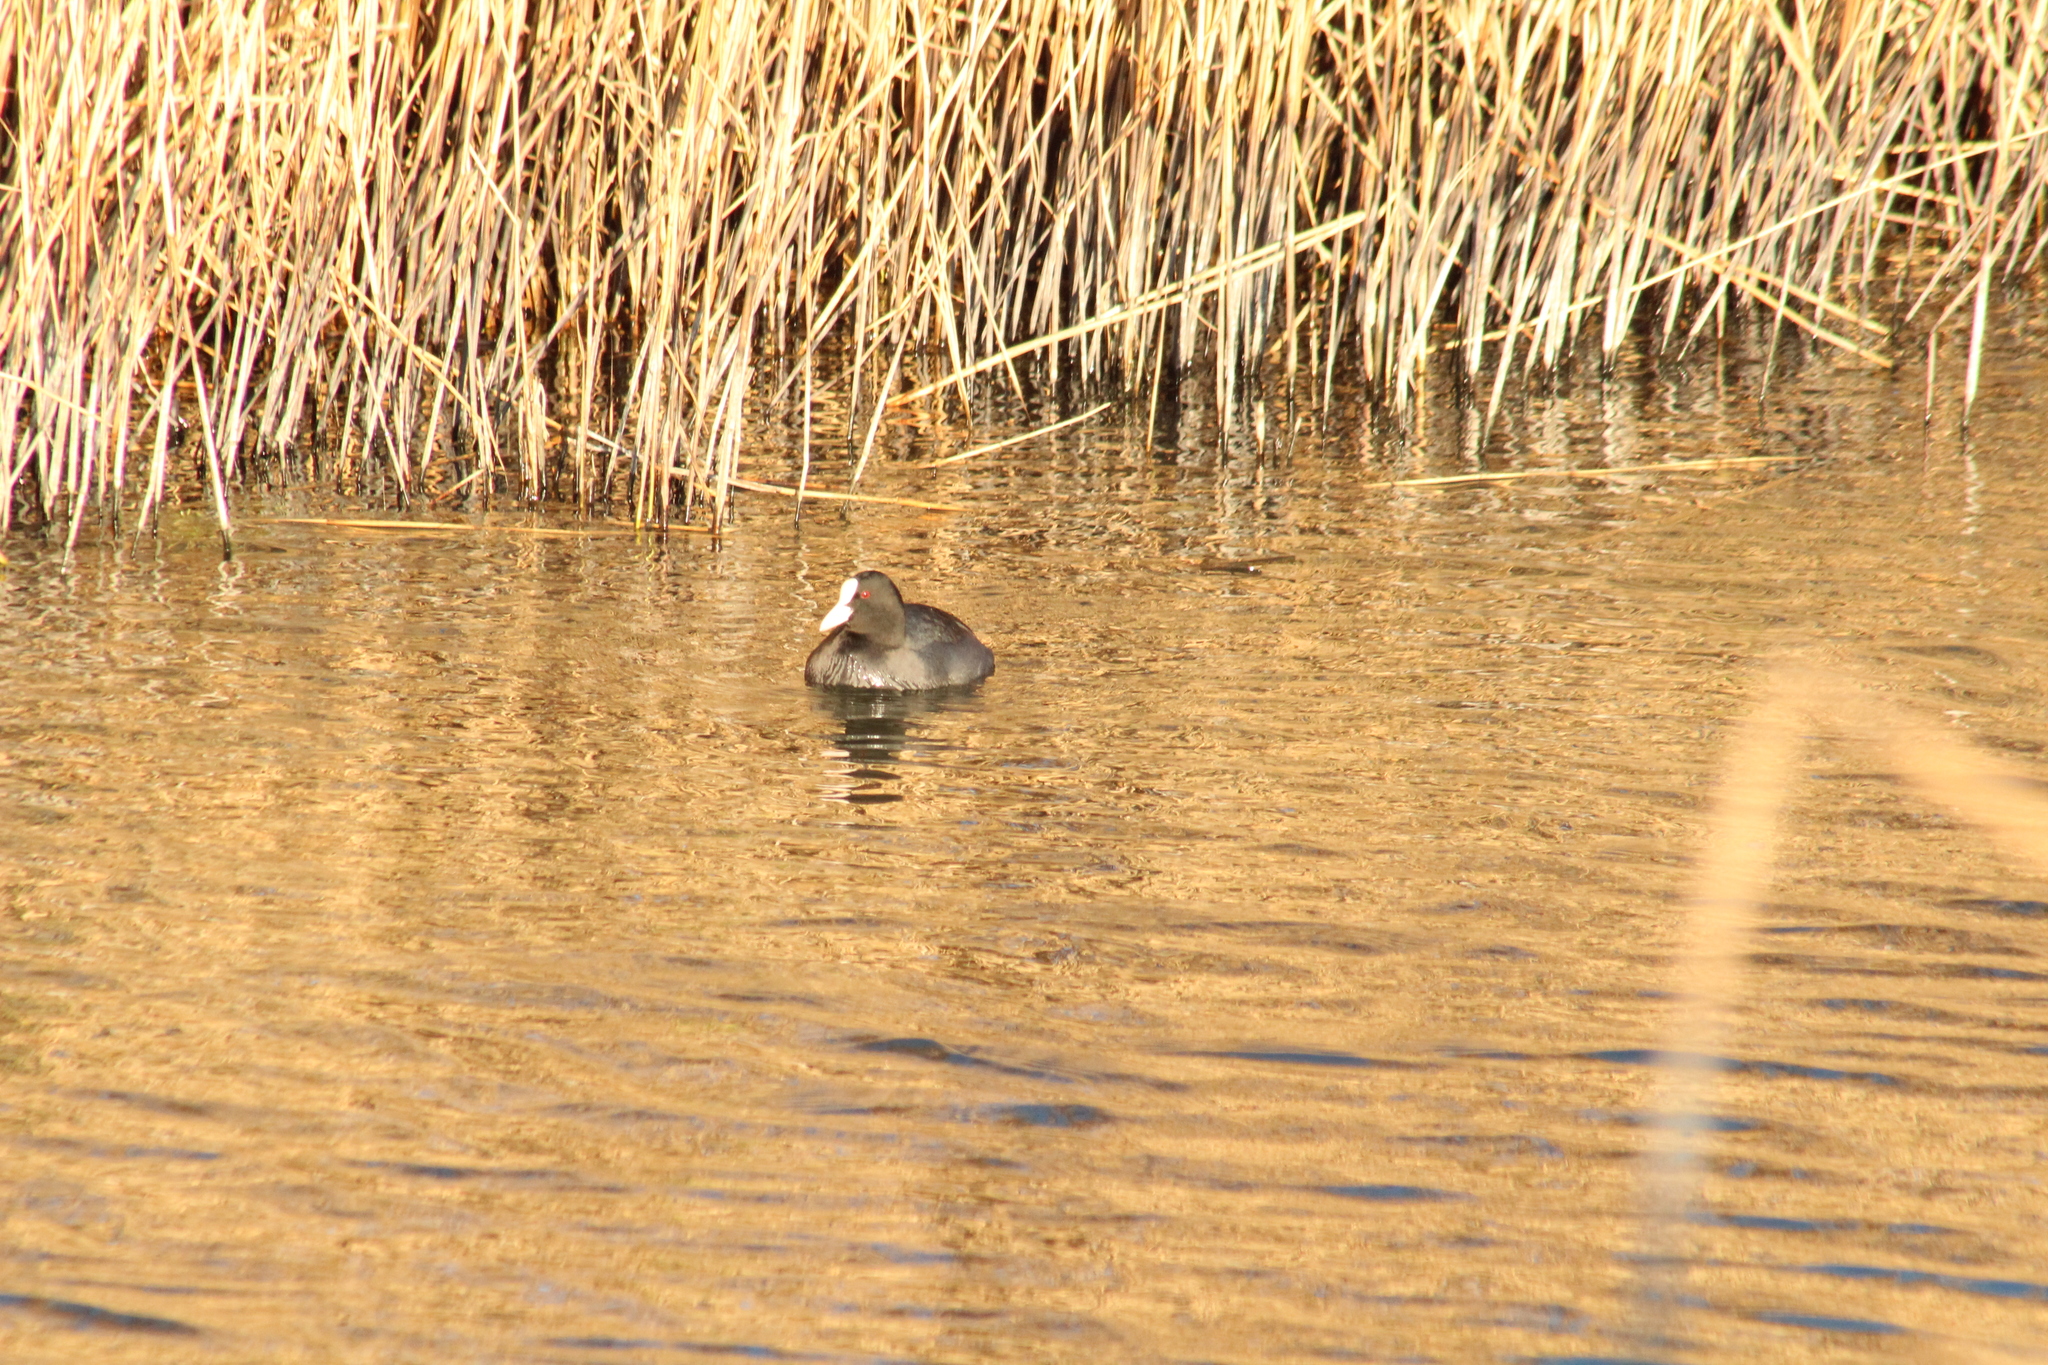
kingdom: Animalia
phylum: Chordata
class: Aves
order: Gruiformes
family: Rallidae
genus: Fulica
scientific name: Fulica atra
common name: Eurasian coot
